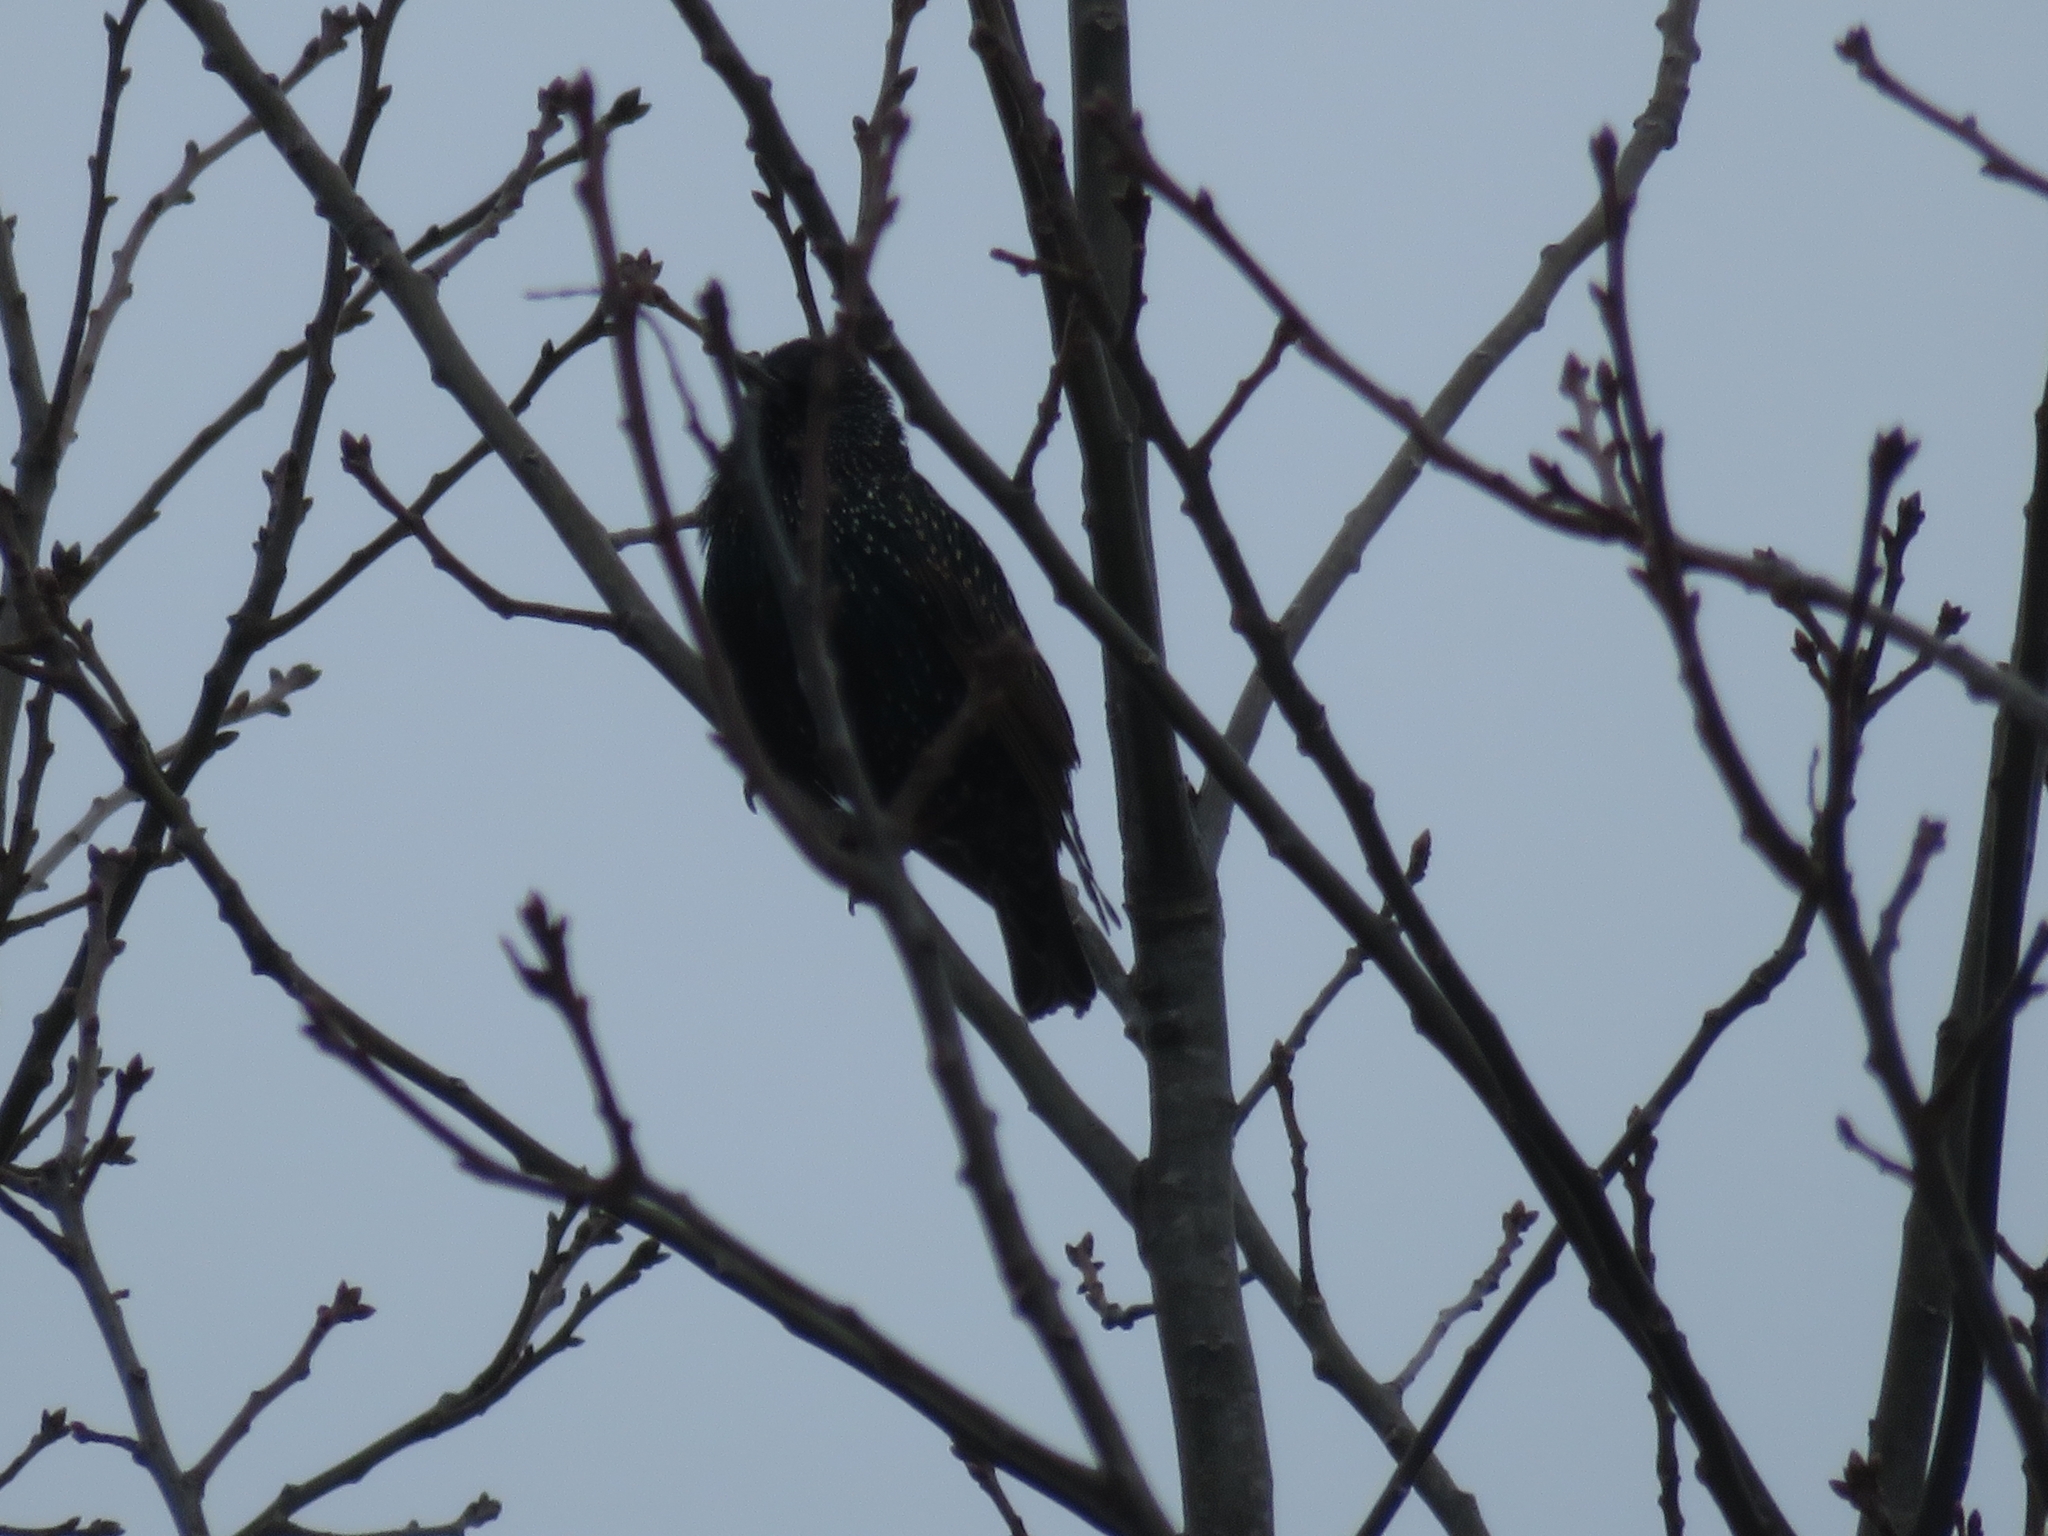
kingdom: Animalia
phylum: Chordata
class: Aves
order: Passeriformes
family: Sturnidae
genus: Sturnus
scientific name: Sturnus vulgaris
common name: Common starling
